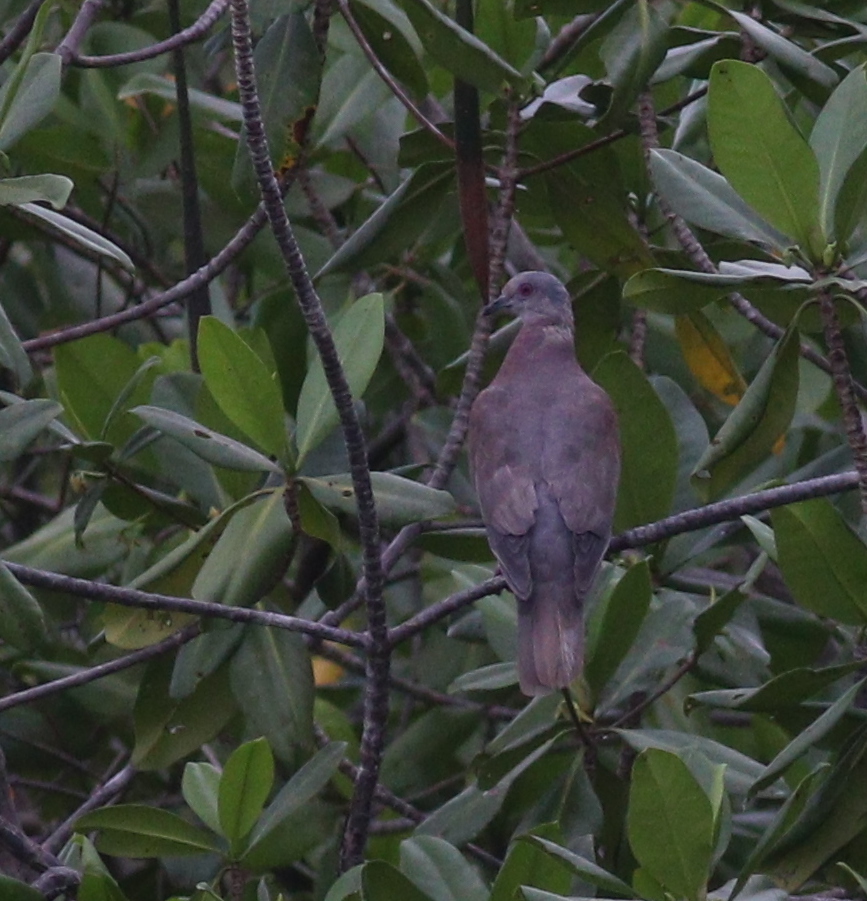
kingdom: Animalia
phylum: Chordata
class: Aves
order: Columbiformes
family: Columbidae
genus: Patagioenas
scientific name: Patagioenas cayennensis
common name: Pale-vented pigeon
